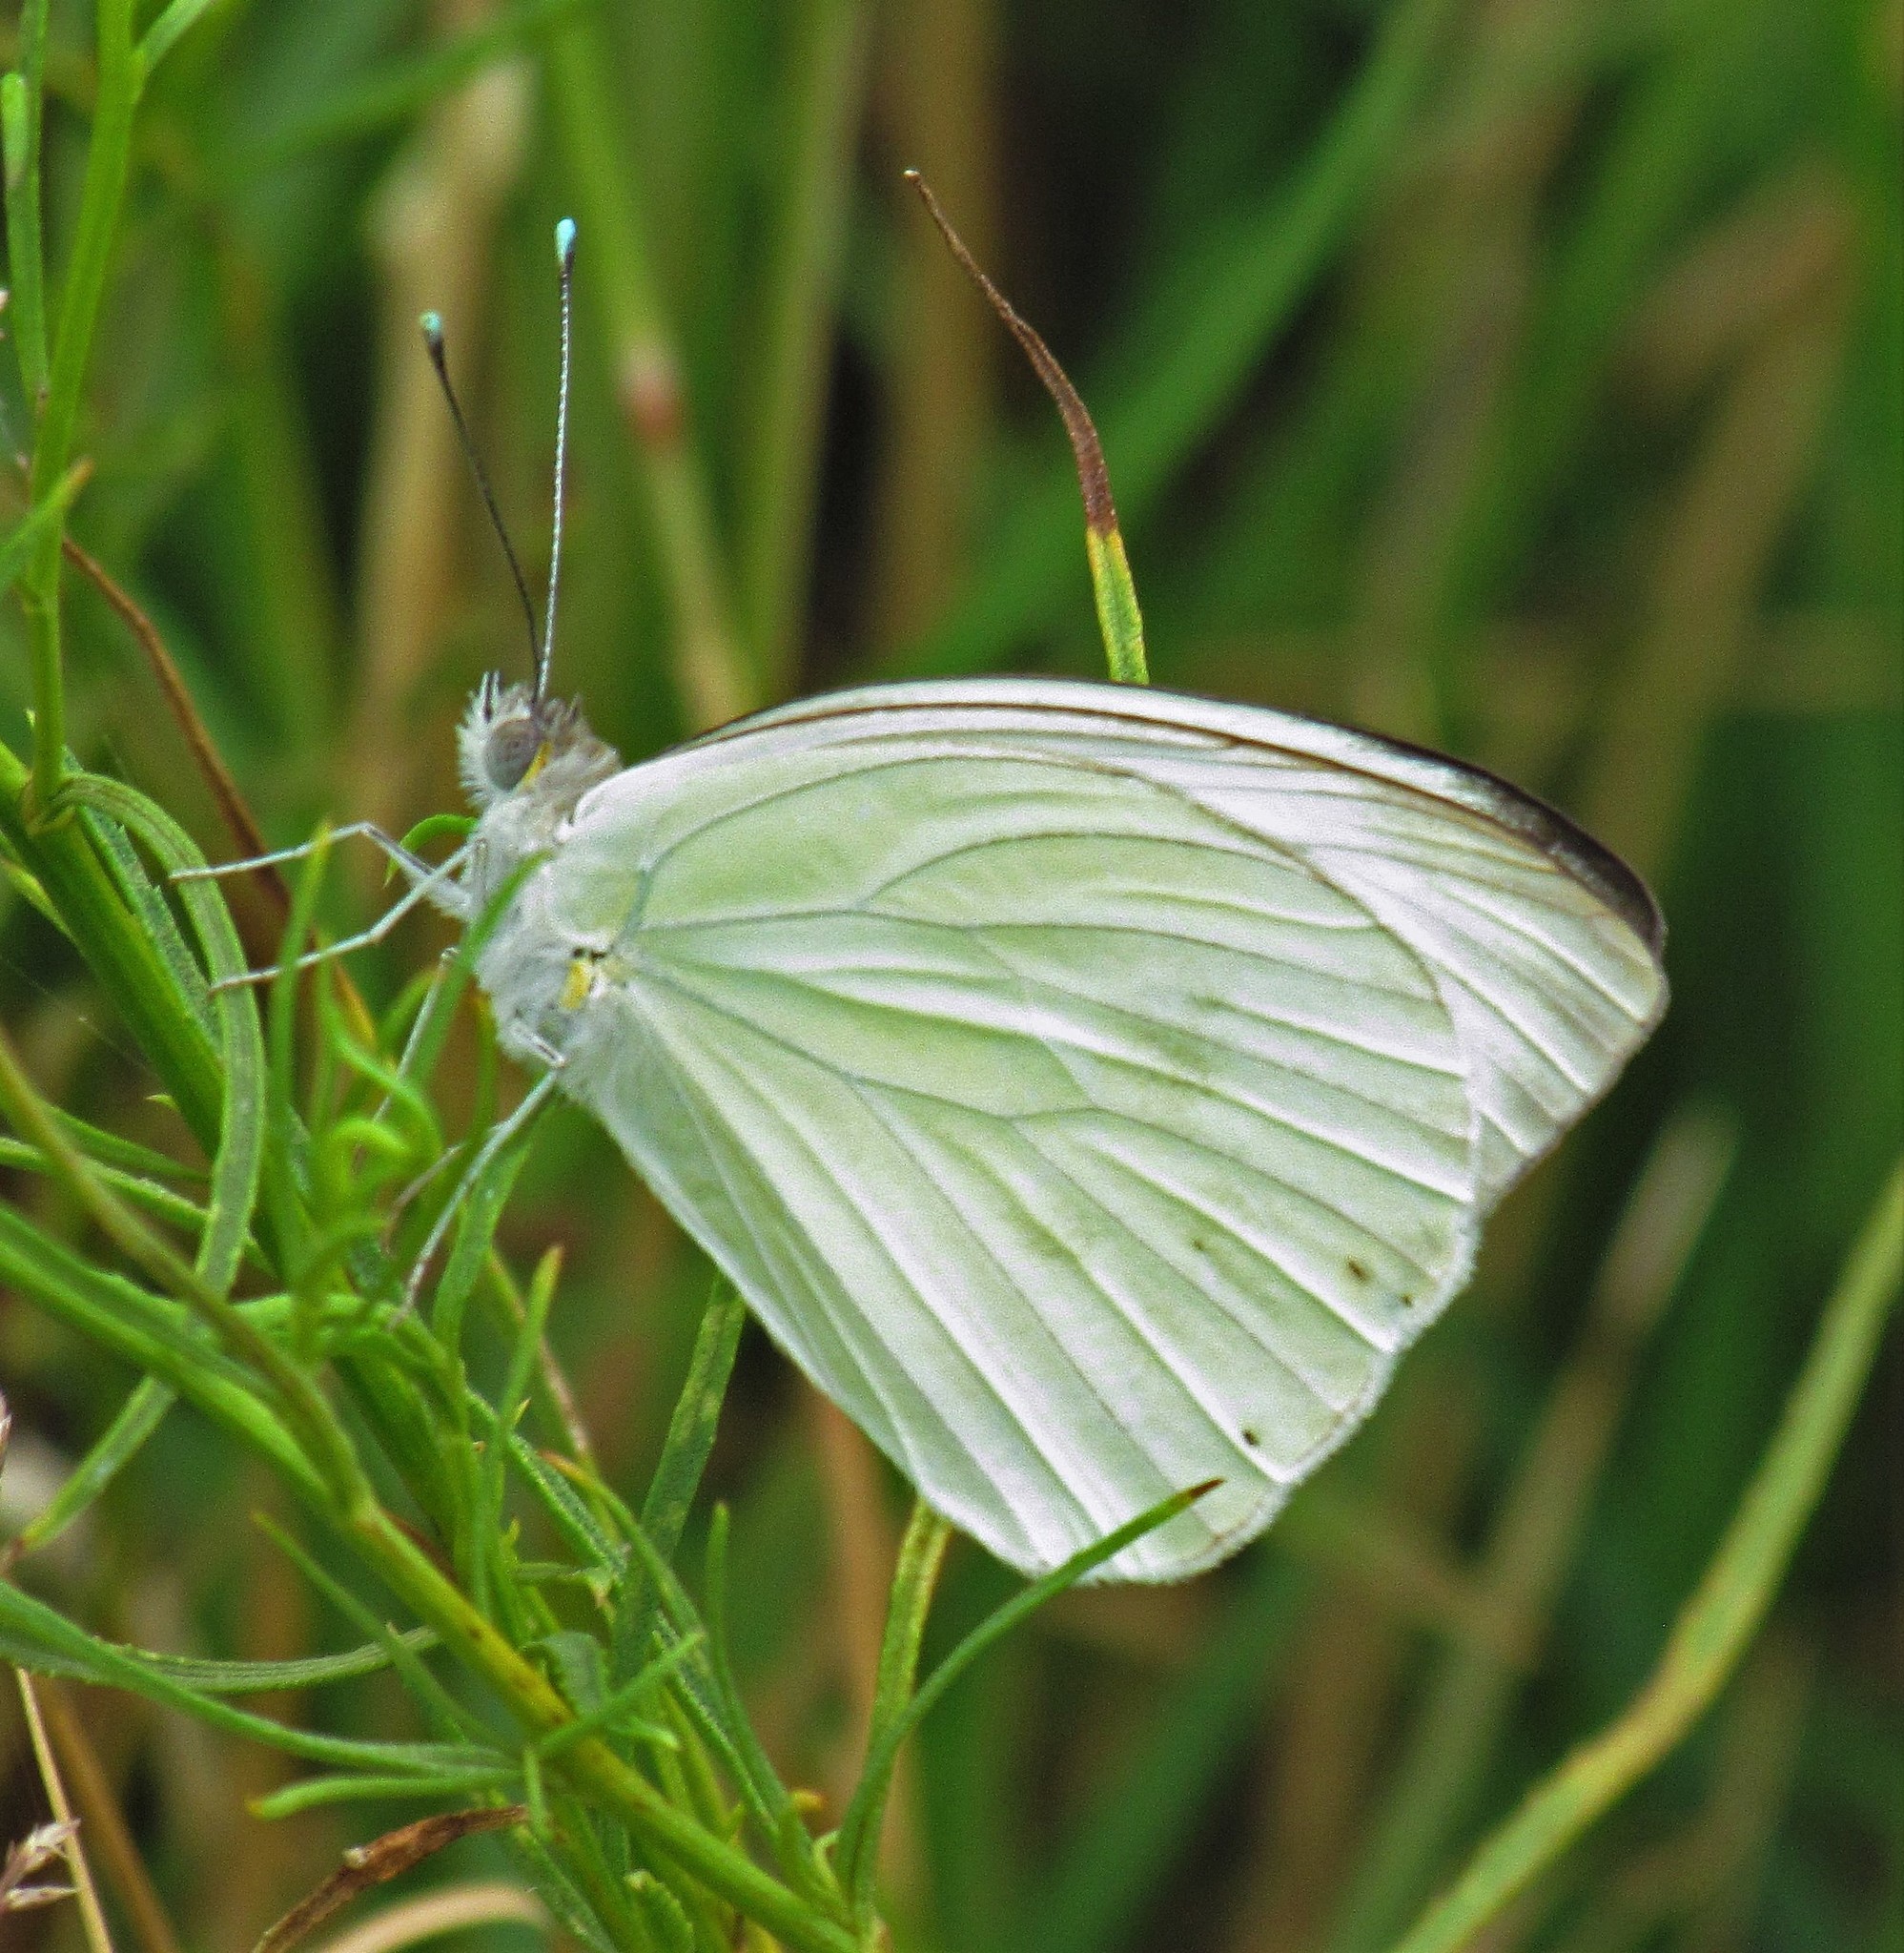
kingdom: Animalia
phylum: Arthropoda
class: Insecta
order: Lepidoptera
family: Pieridae
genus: Ascia
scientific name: Ascia monuste
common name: Great southern white
